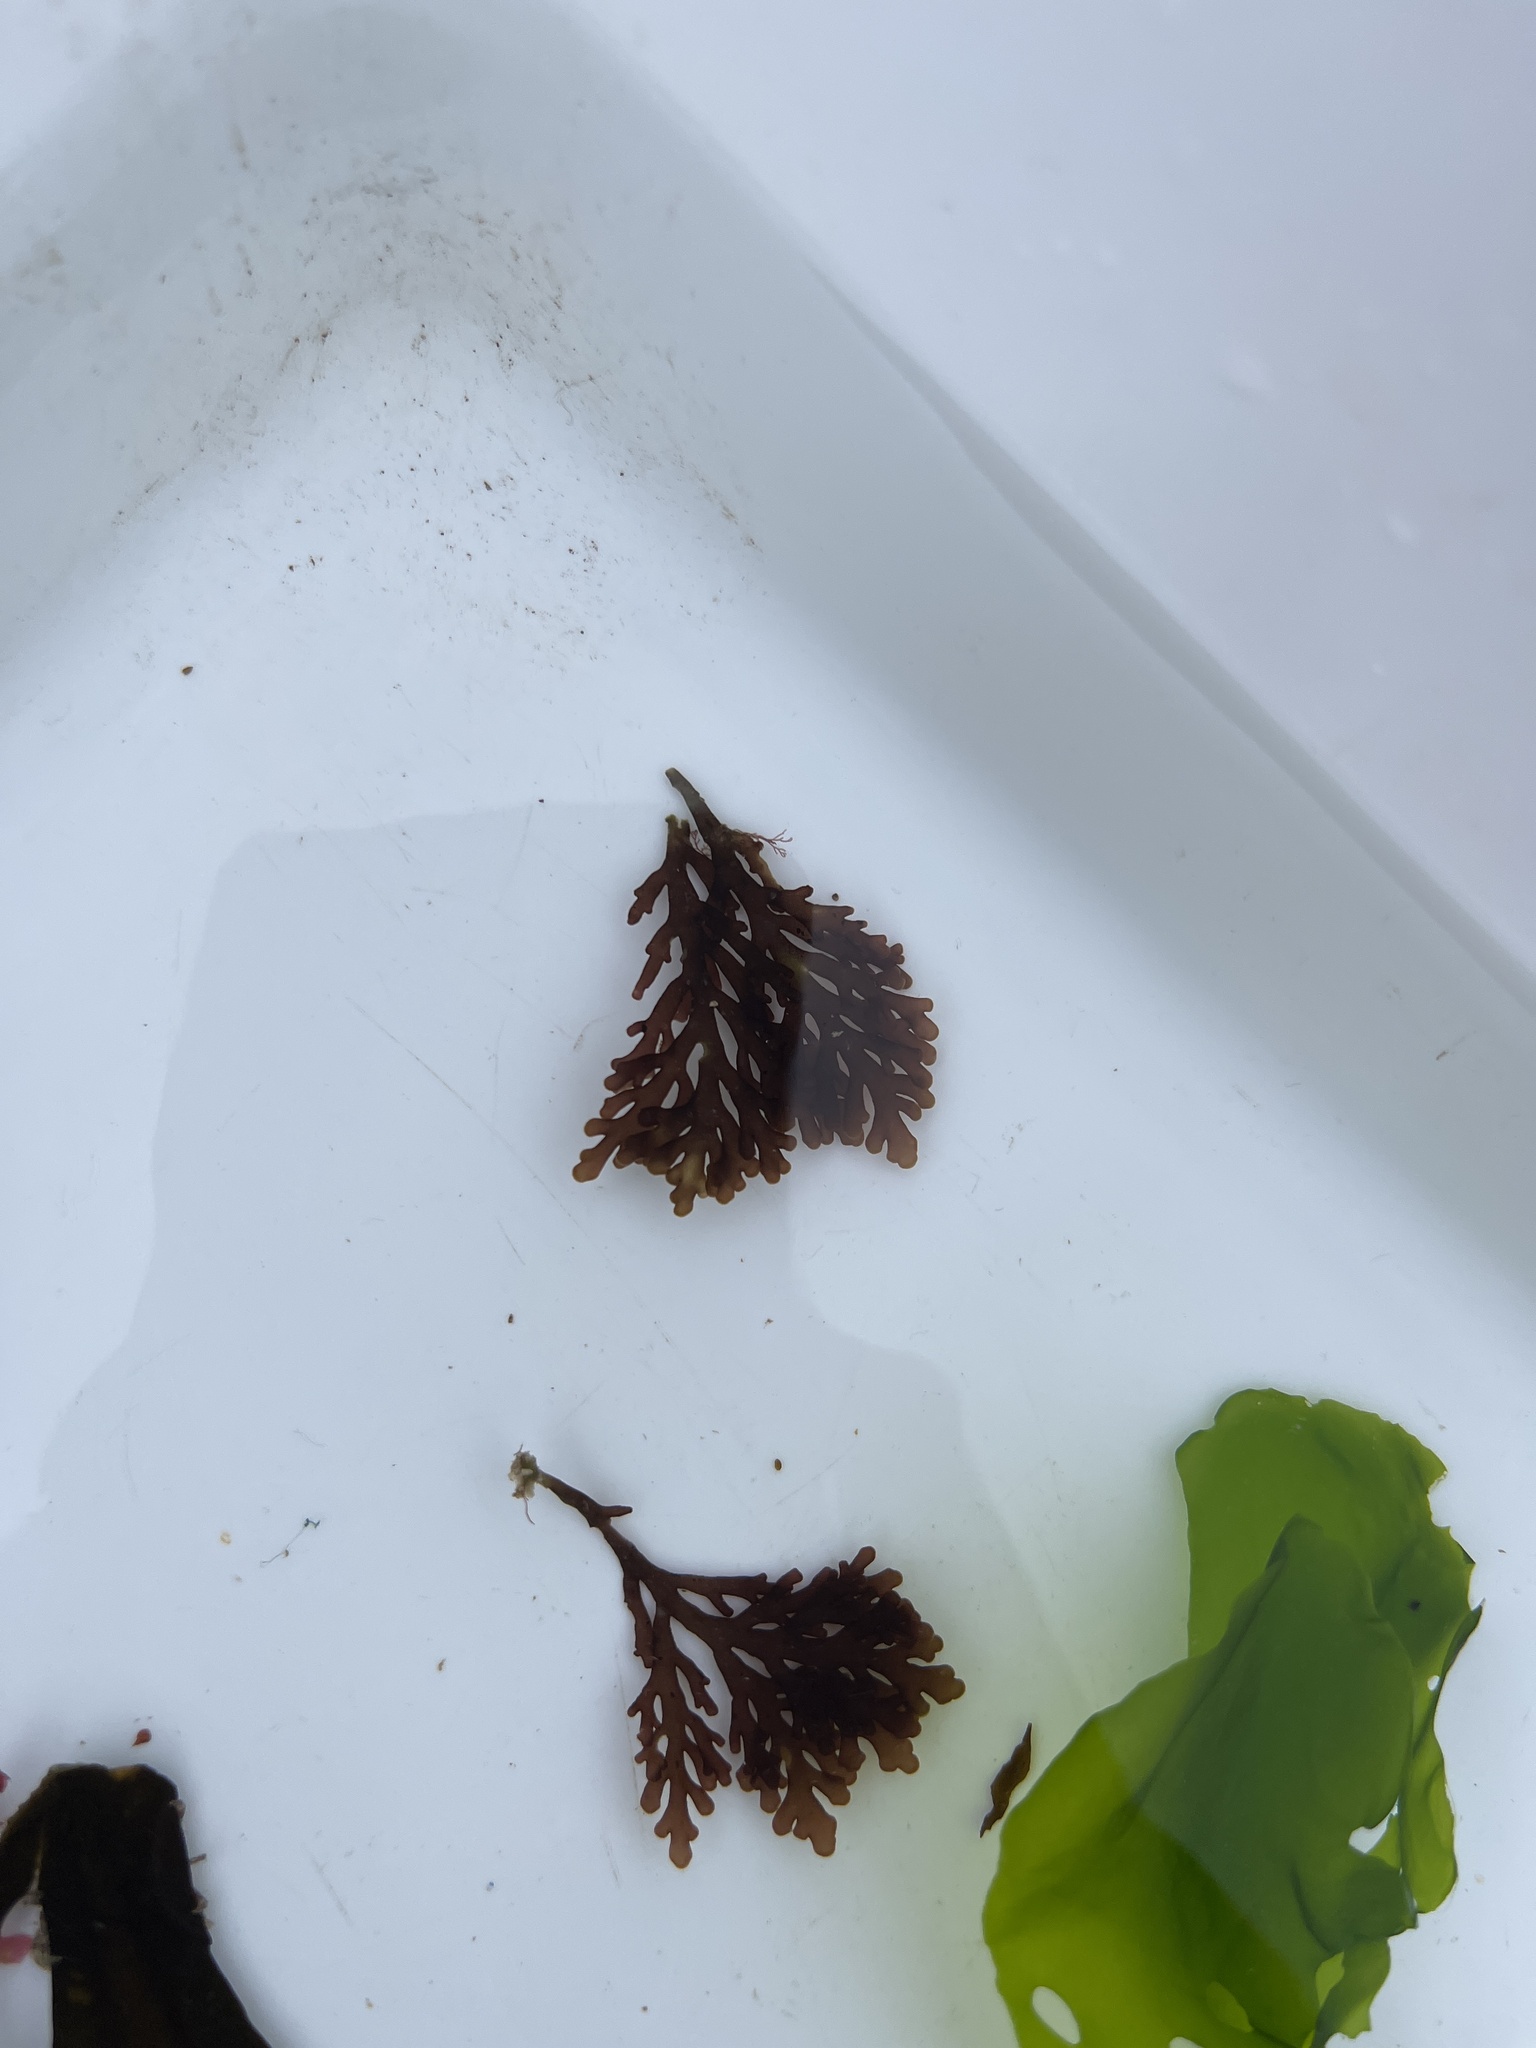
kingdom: Plantae
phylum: Rhodophyta
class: Florideophyceae
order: Ceramiales
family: Rhodomelaceae
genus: Laurencia
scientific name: Laurencia Osmundea pinnatifida
